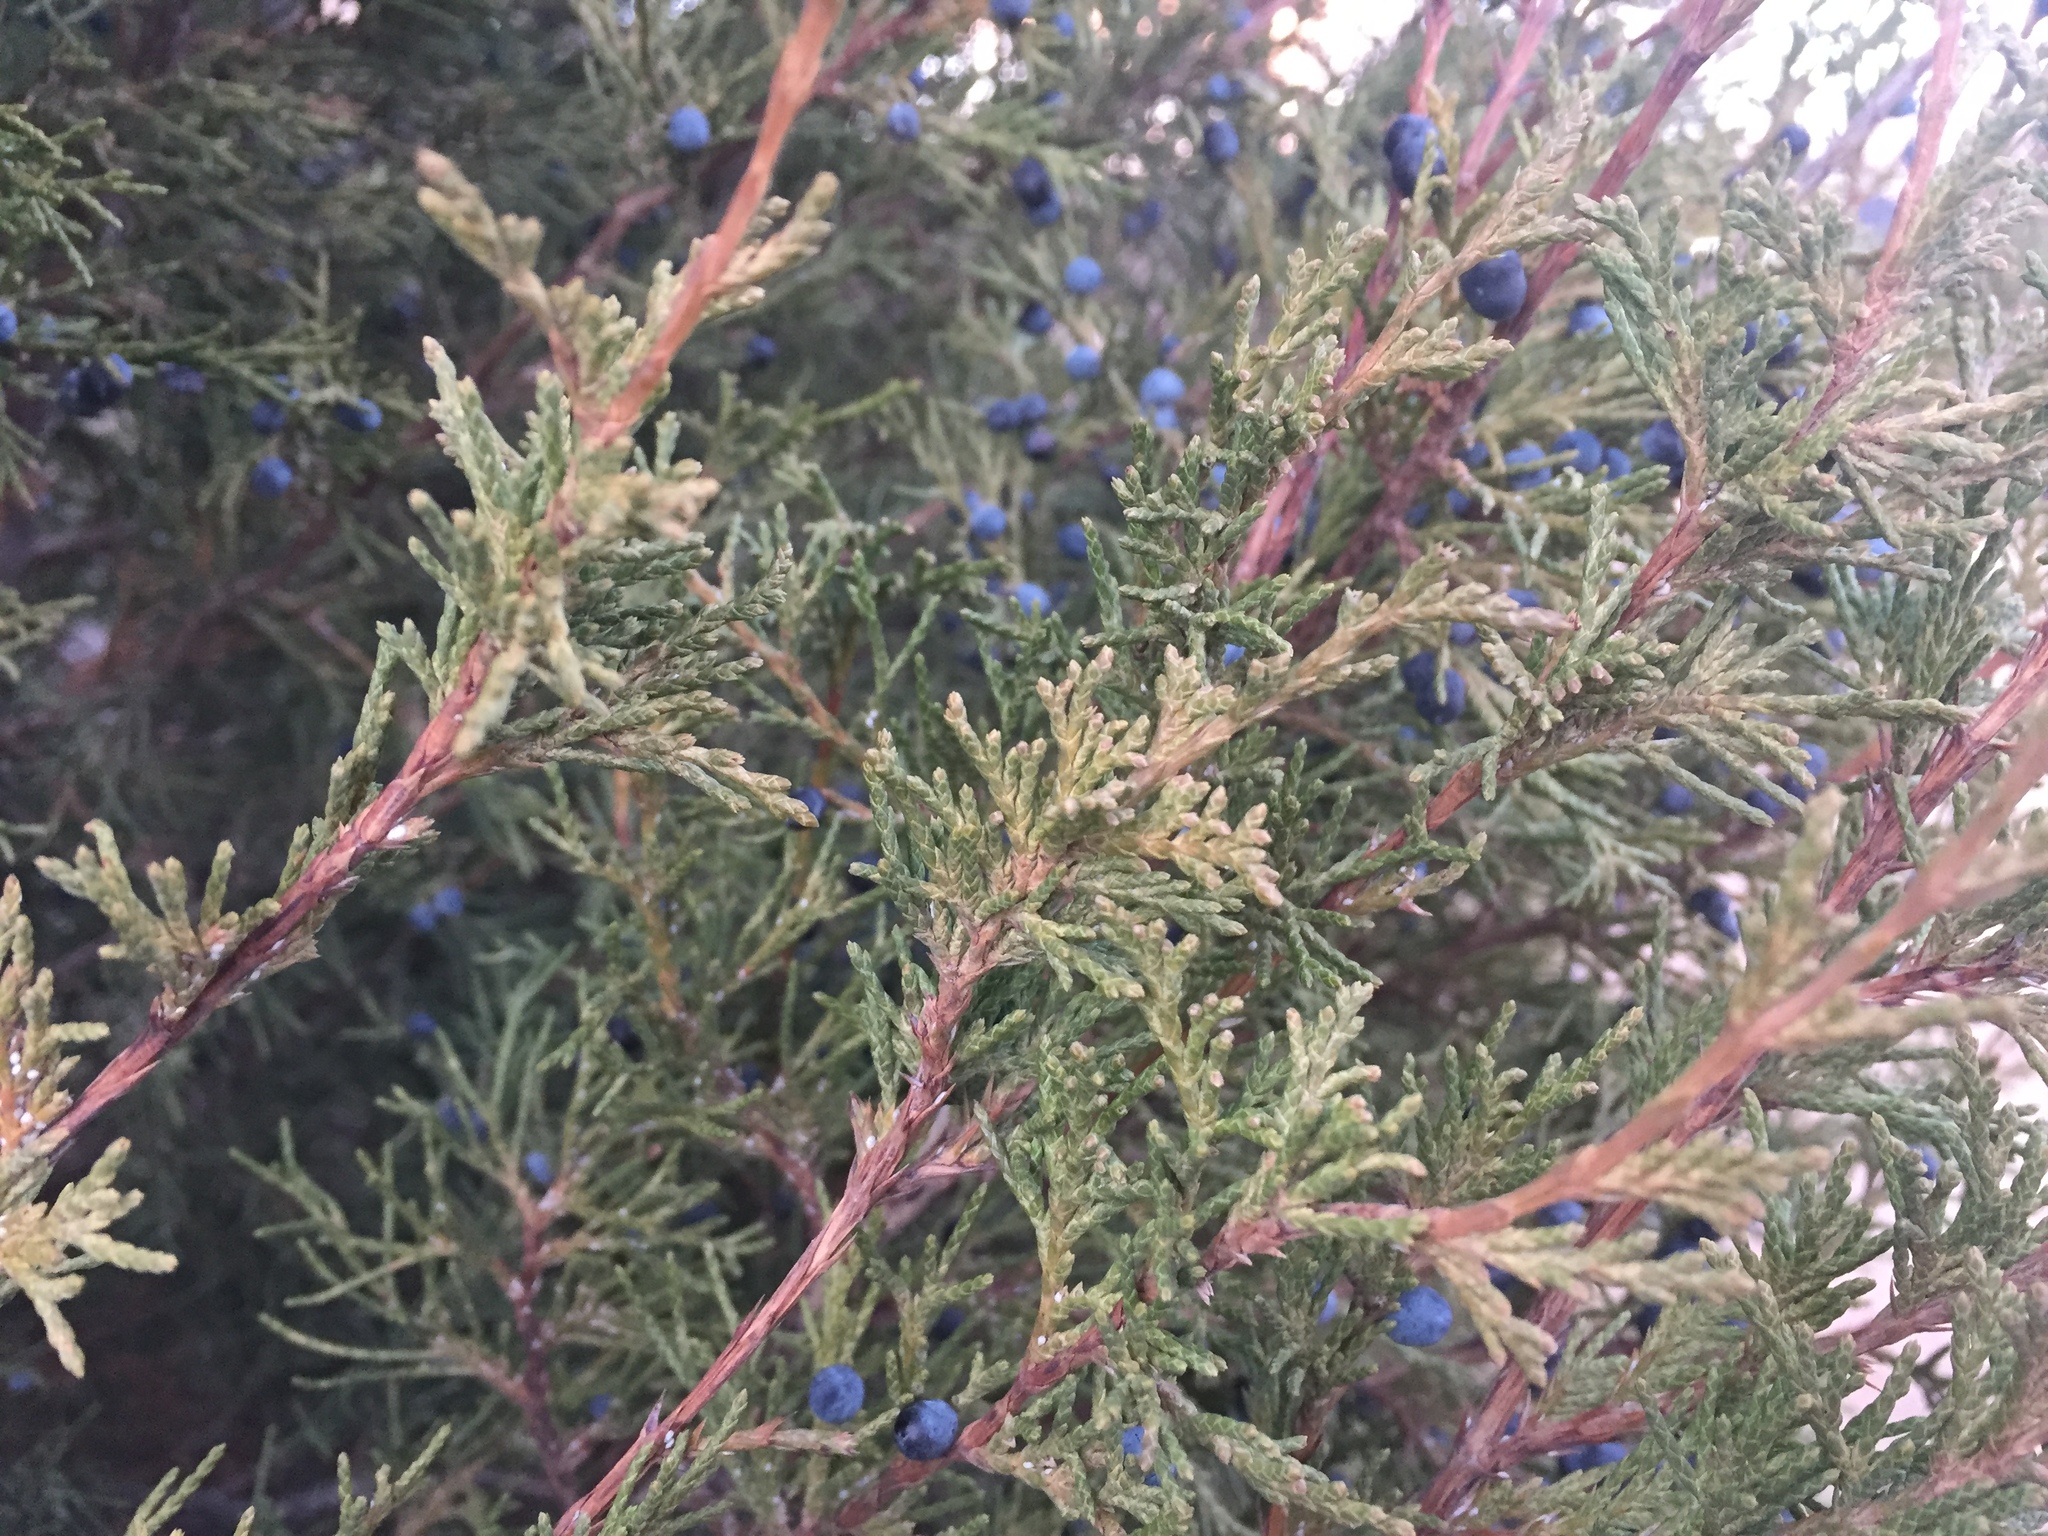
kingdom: Plantae
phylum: Tracheophyta
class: Pinopsida
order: Pinales
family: Cupressaceae
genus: Juniperus
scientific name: Juniperus scopulorum
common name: Rocky mountain juniper
